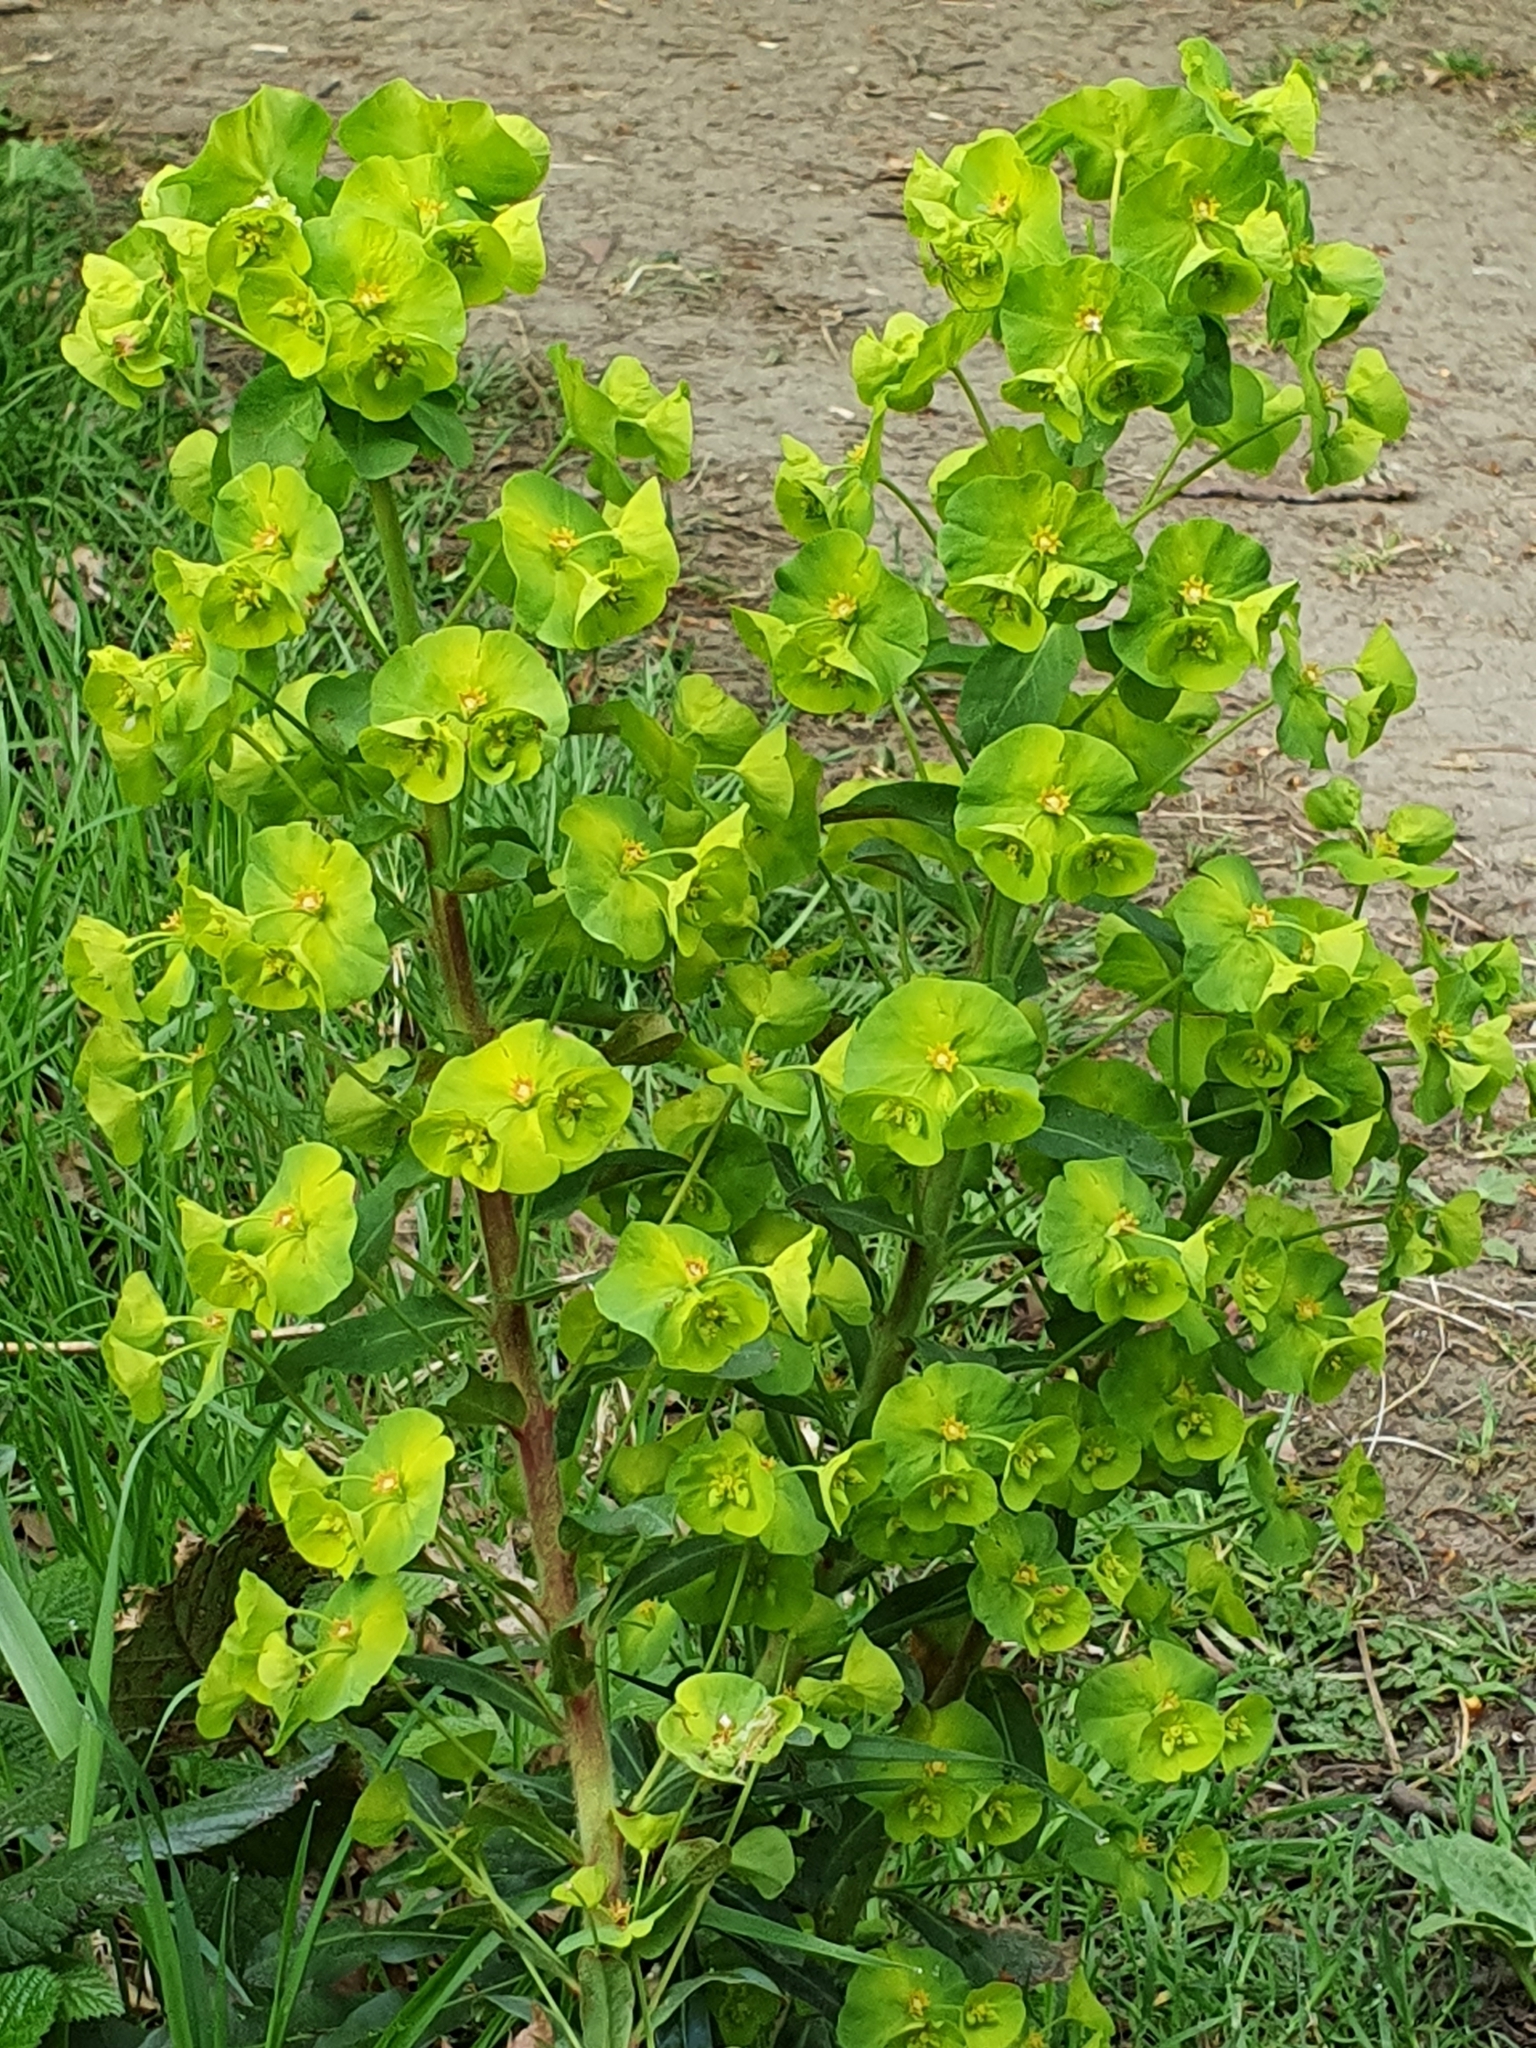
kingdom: Plantae
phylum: Tracheophyta
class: Magnoliopsida
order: Malpighiales
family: Euphorbiaceae
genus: Euphorbia
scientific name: Euphorbia amygdaloides
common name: Wood spurge
